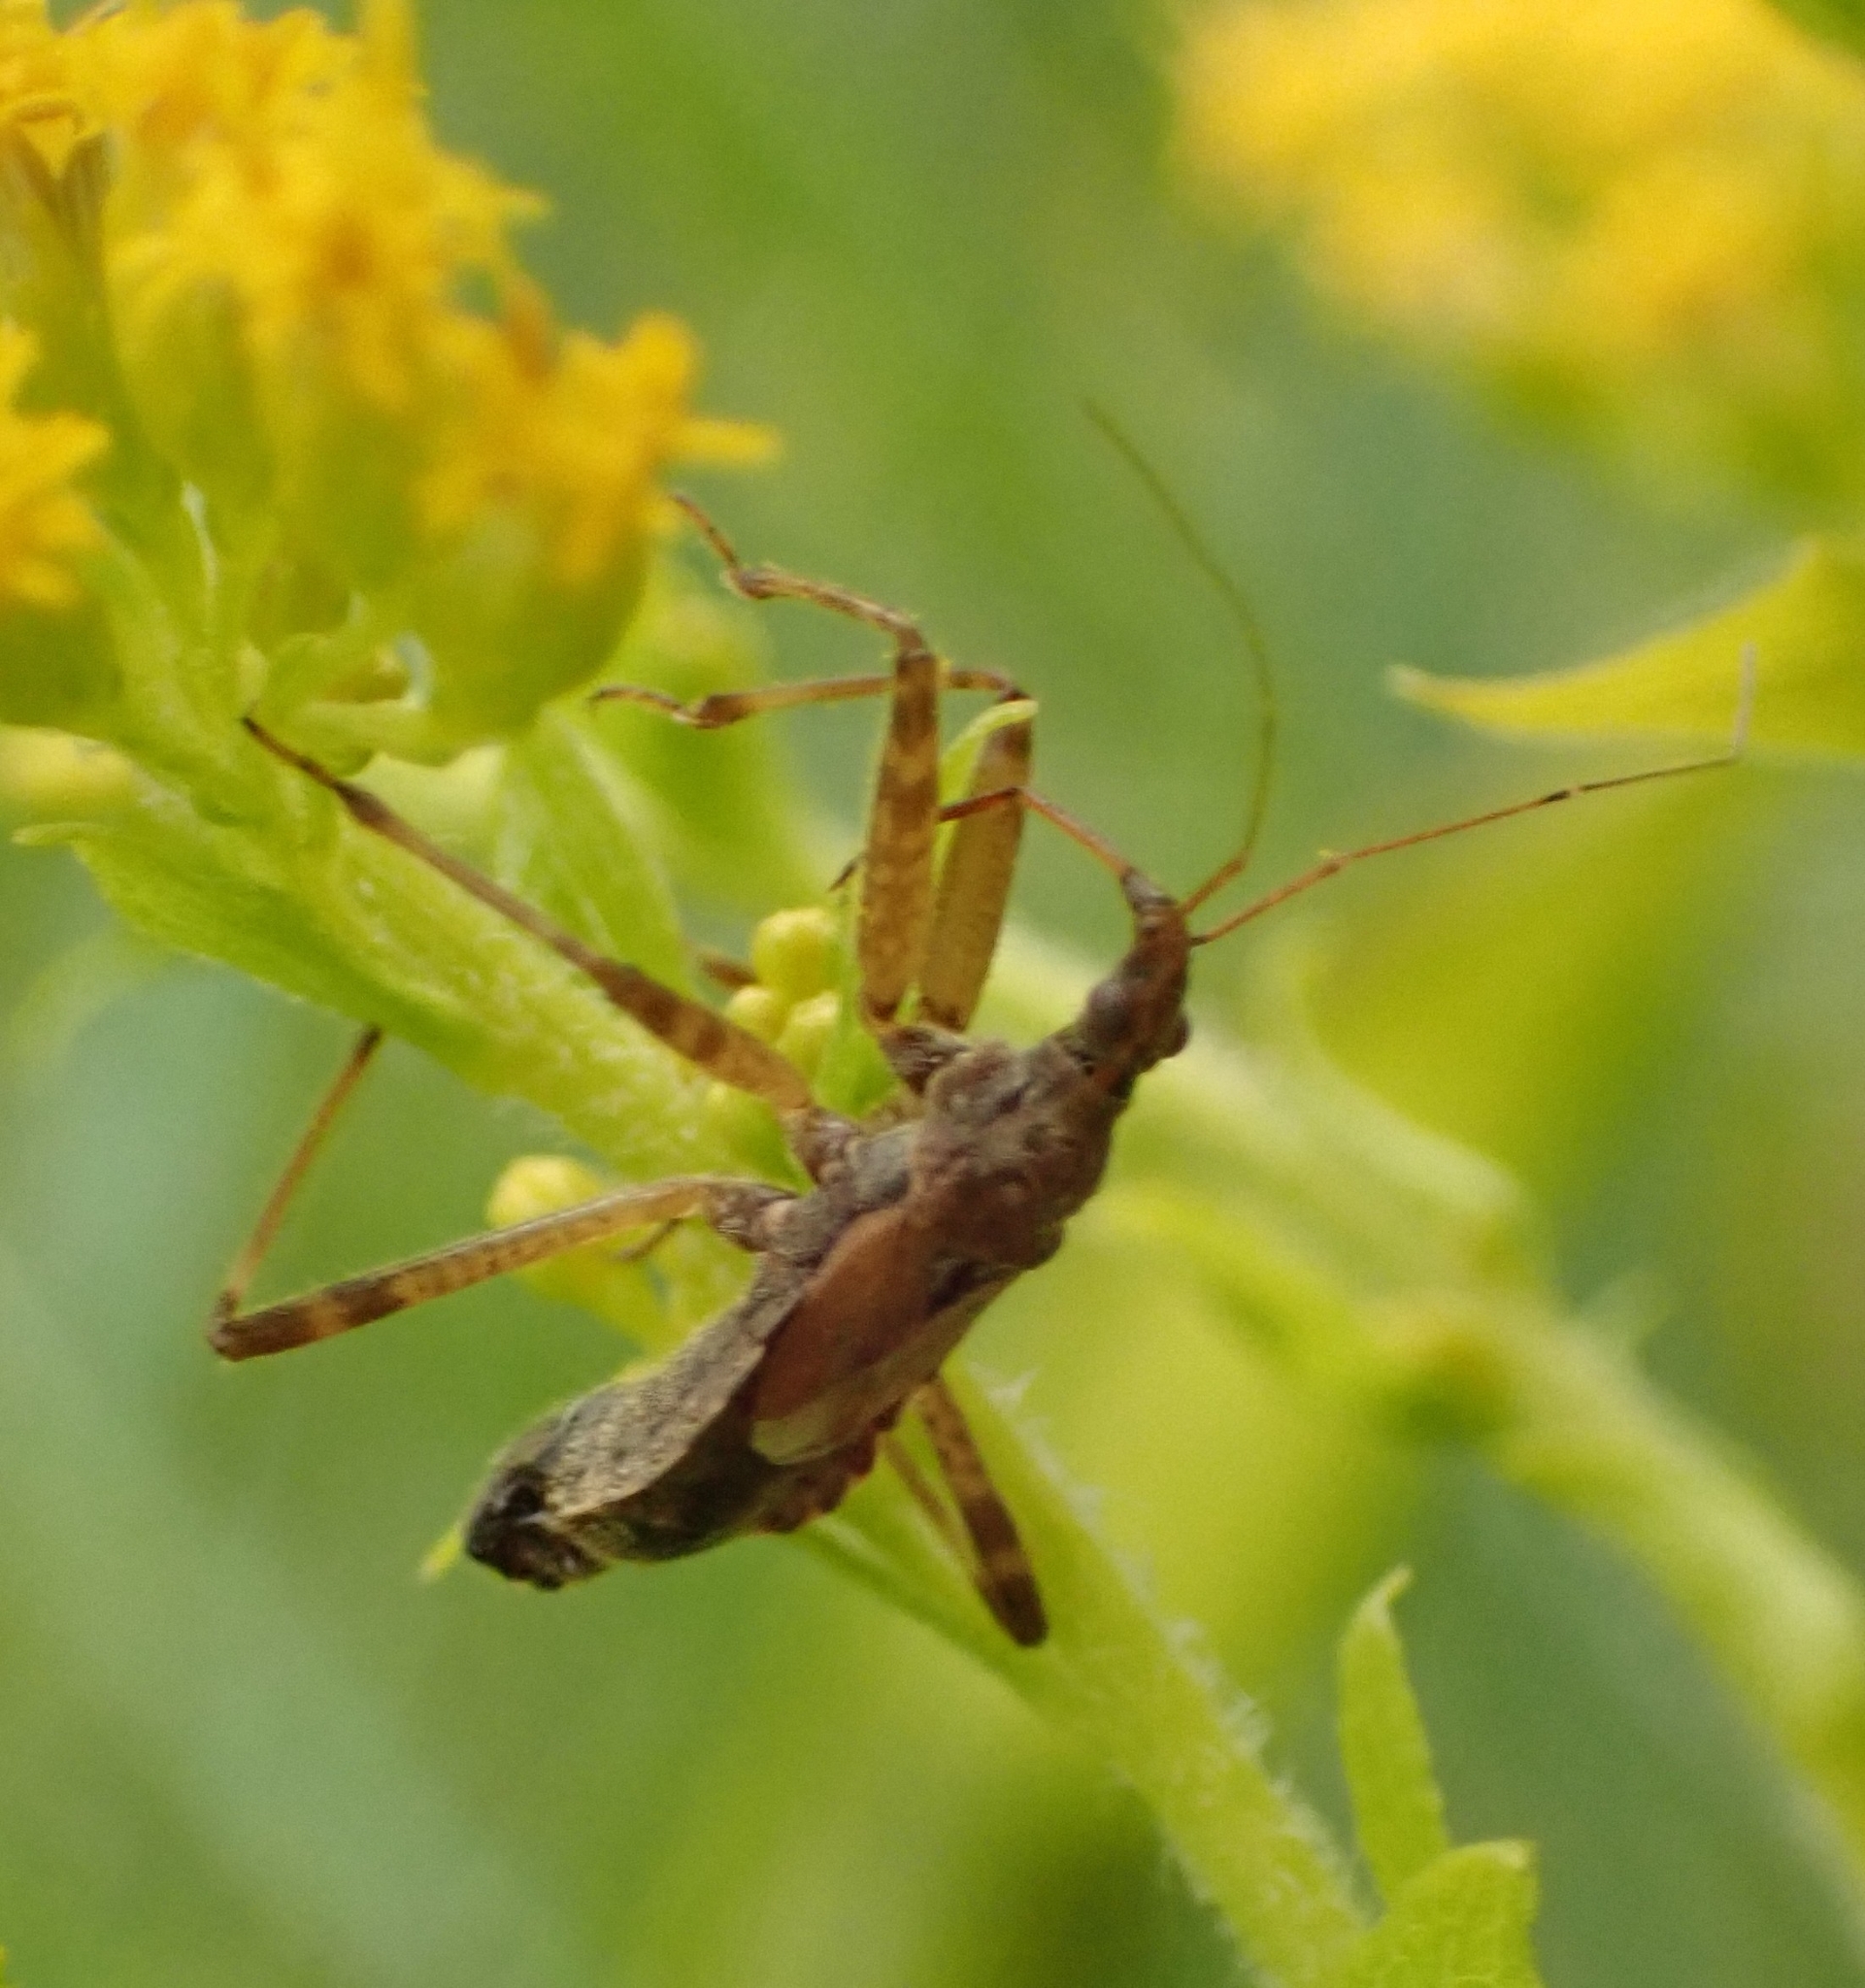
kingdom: Animalia
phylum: Arthropoda
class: Insecta
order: Hemiptera
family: Nabidae
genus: Himacerus
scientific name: Himacerus apterus
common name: Tree damsel bug
